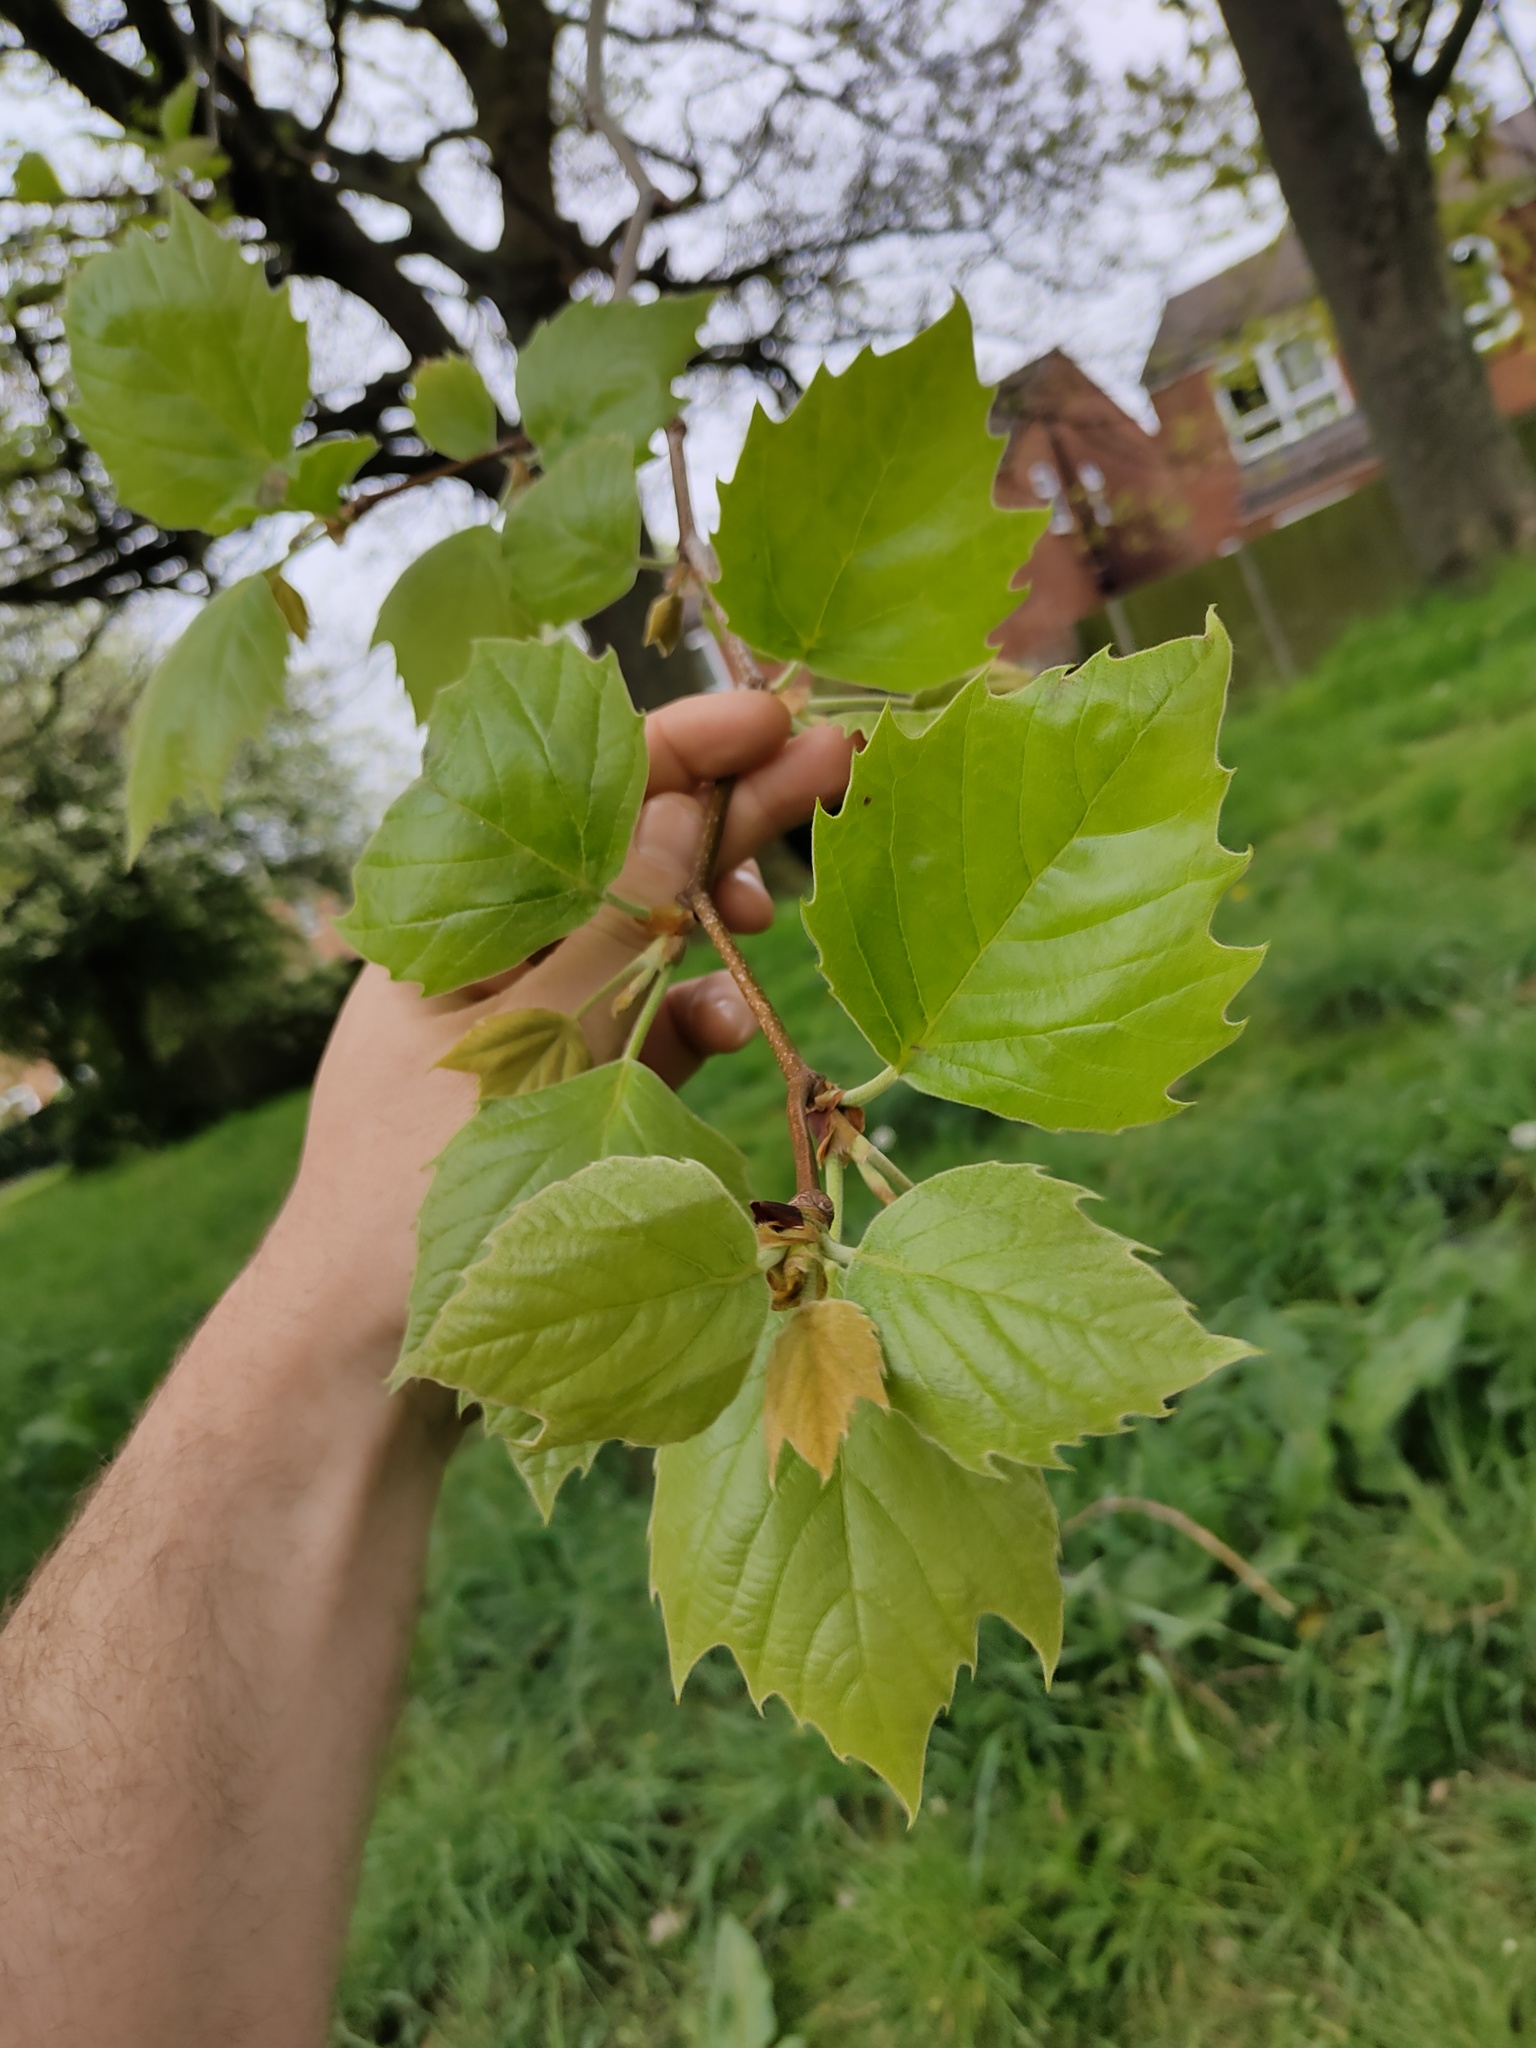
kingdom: Plantae
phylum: Tracheophyta
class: Magnoliopsida
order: Proteales
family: Platanaceae
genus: Platanus
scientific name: Platanus hispanica
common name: London plane
